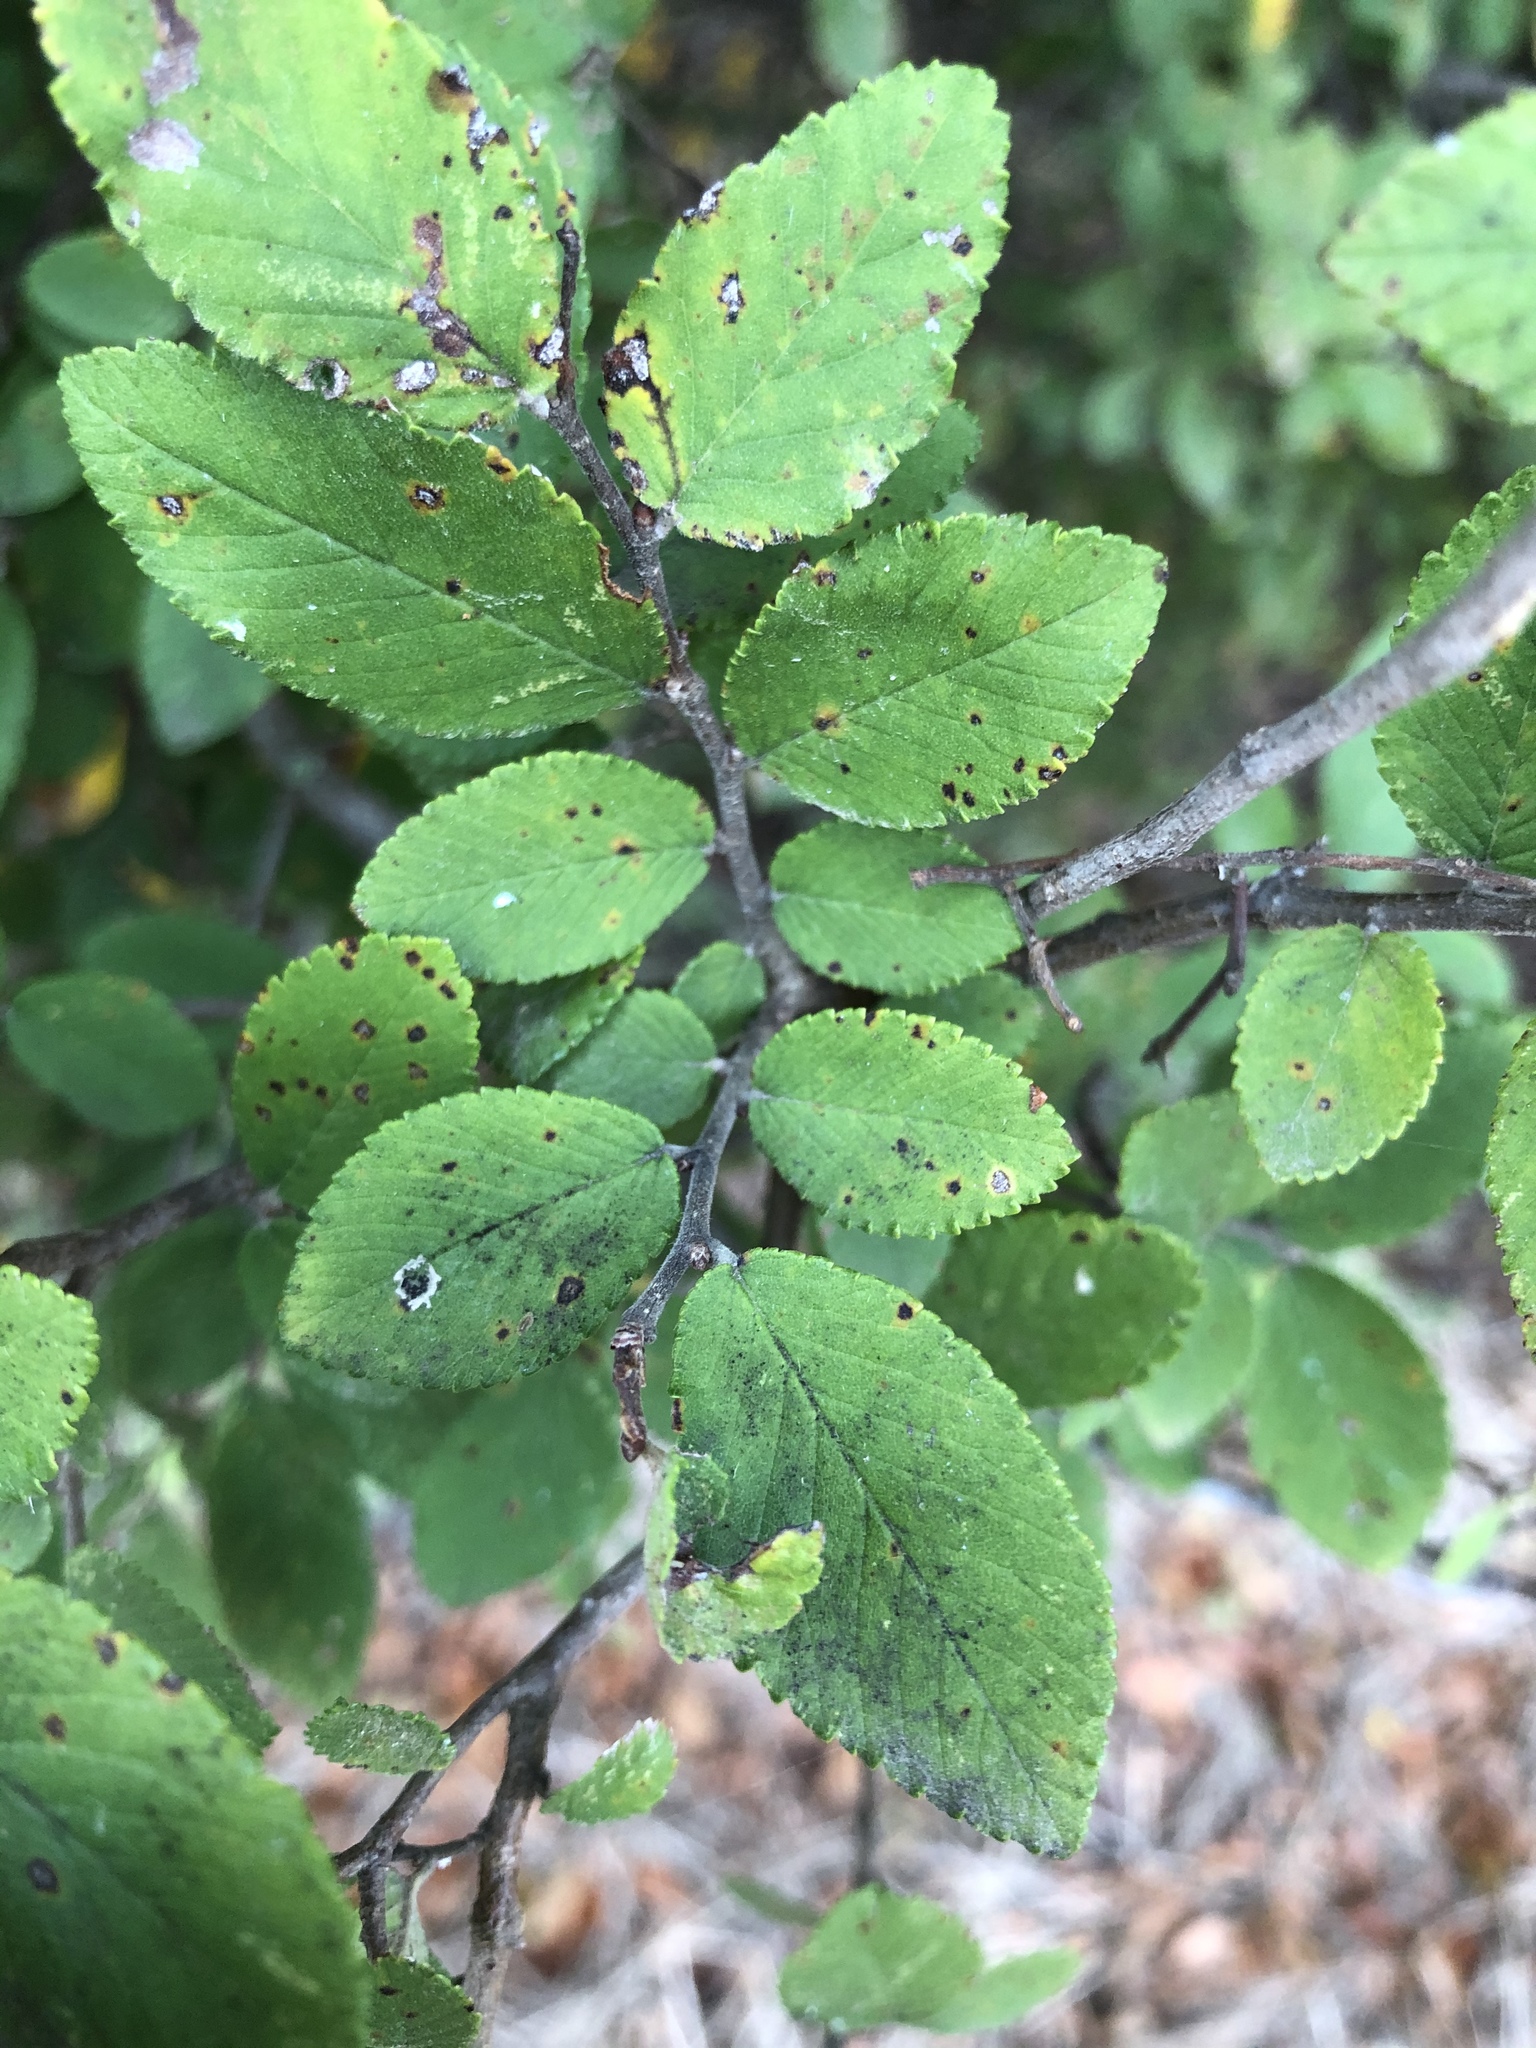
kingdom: Plantae
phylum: Tracheophyta
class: Magnoliopsida
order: Rosales
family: Ulmaceae
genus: Ulmus
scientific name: Ulmus crassifolia
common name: Basket elm
